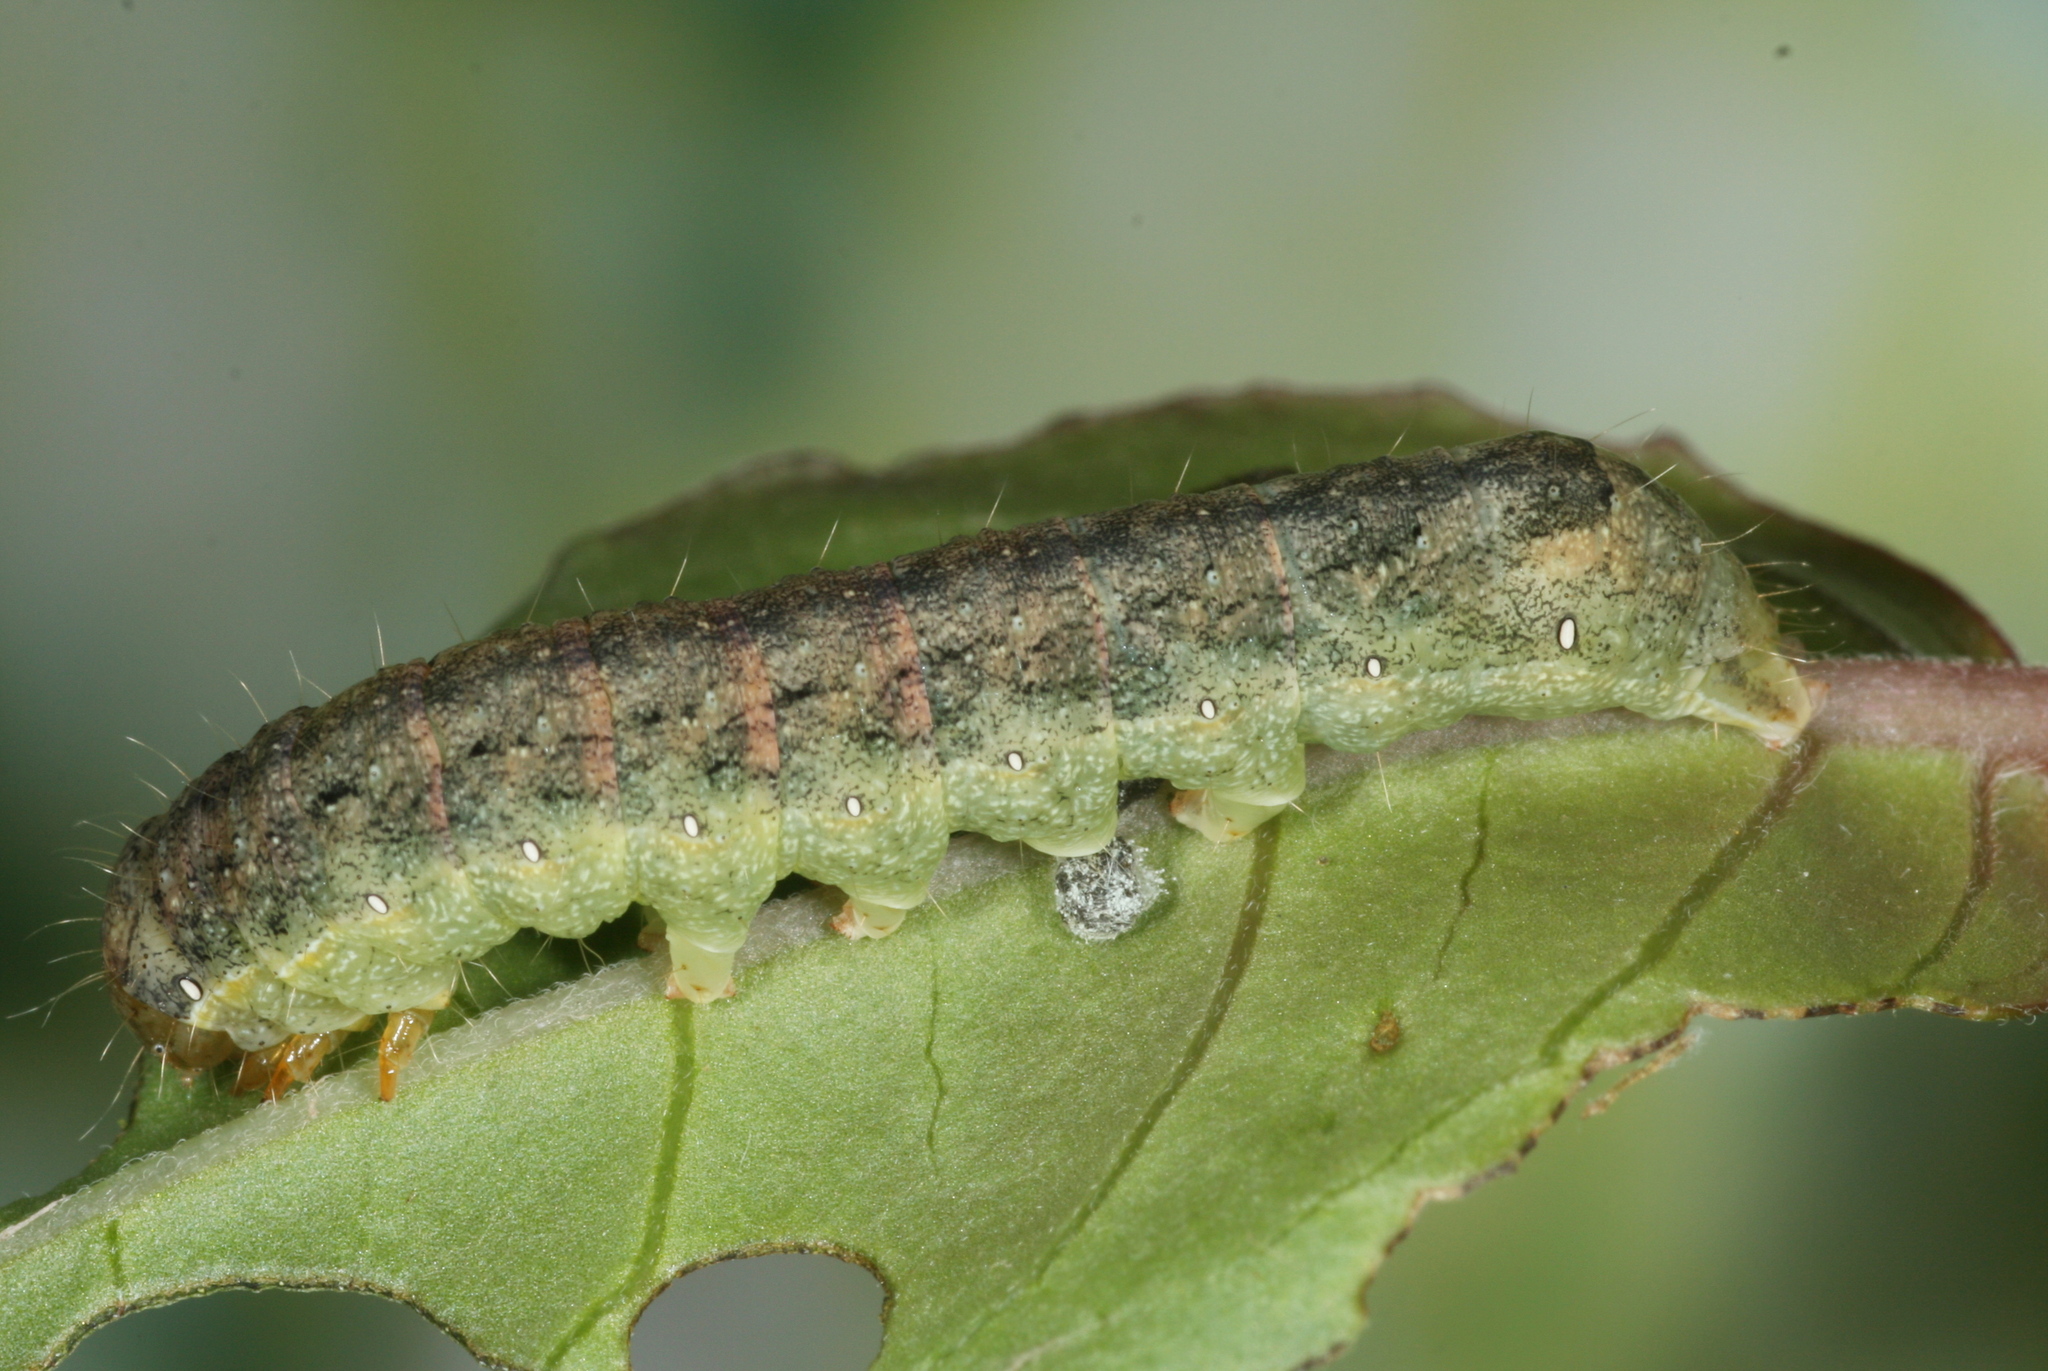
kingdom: Animalia
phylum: Arthropoda
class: Insecta
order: Lepidoptera
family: Noctuidae
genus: Mamestra
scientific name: Mamestra brassicae
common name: Cabbage moth
